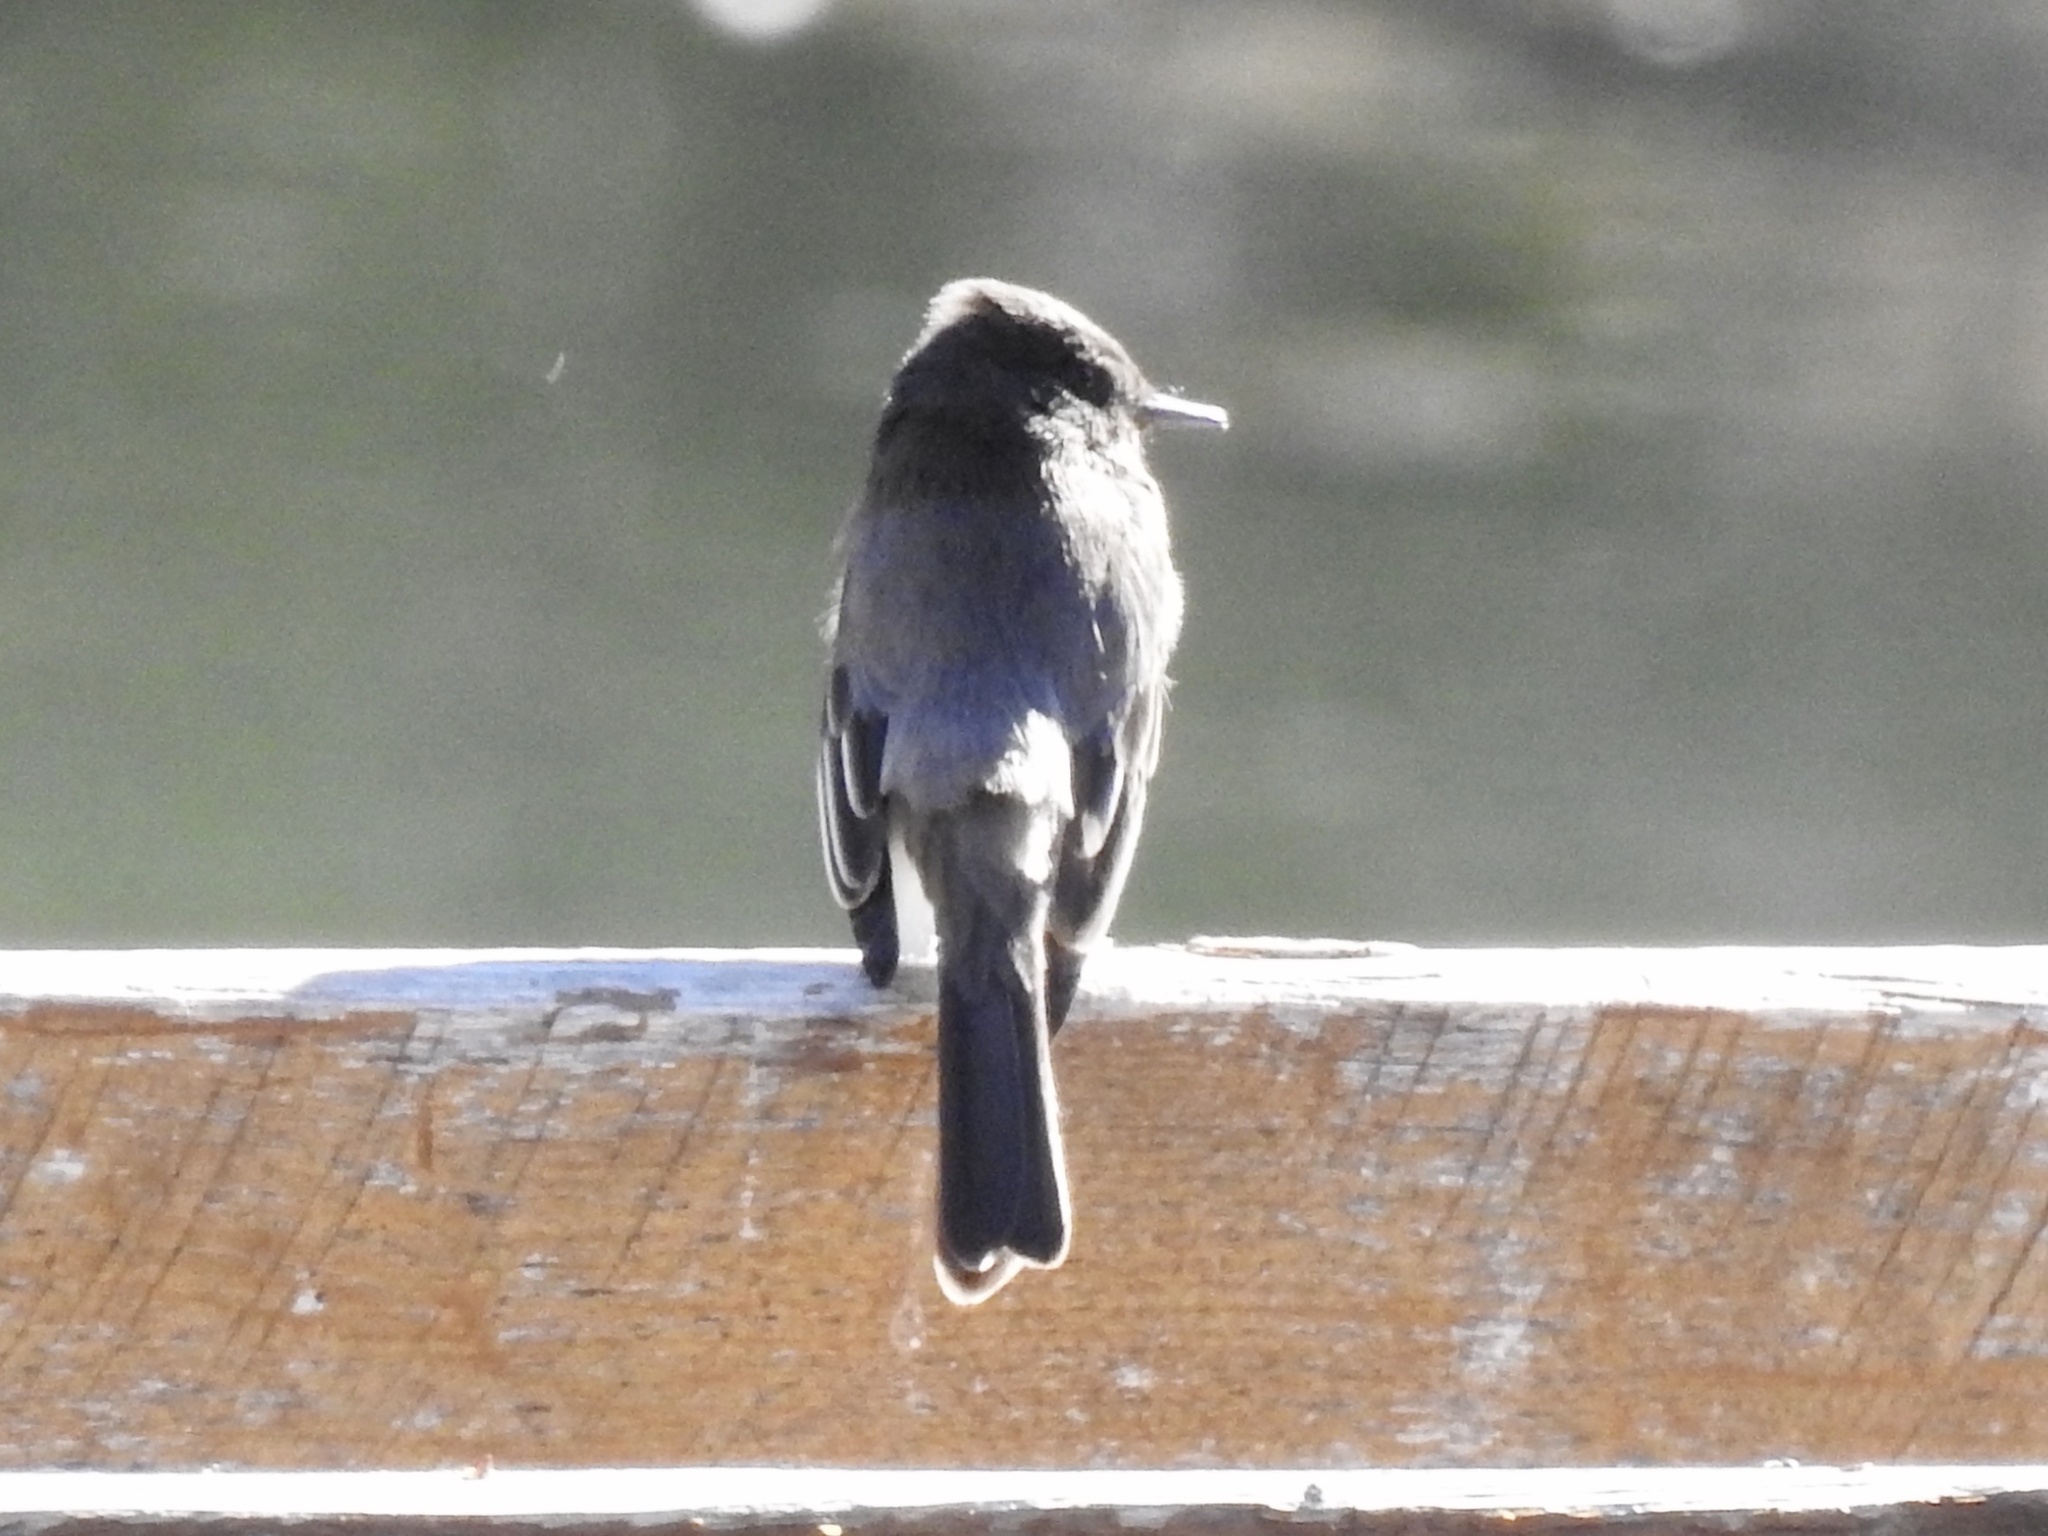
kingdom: Animalia
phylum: Chordata
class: Aves
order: Passeriformes
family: Tyrannidae
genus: Sayornis
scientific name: Sayornis nigricans
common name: Black phoebe
